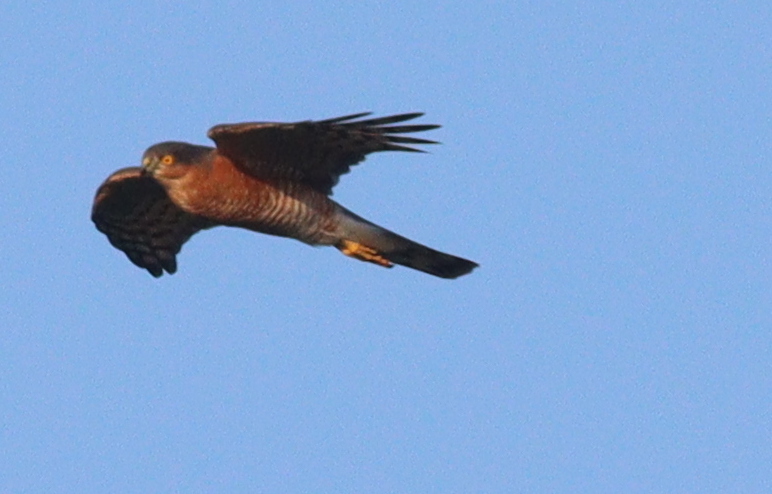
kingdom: Animalia
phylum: Chordata
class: Aves
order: Accipitriformes
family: Accipitridae
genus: Accipiter
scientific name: Accipiter nisus
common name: Eurasian sparrowhawk
